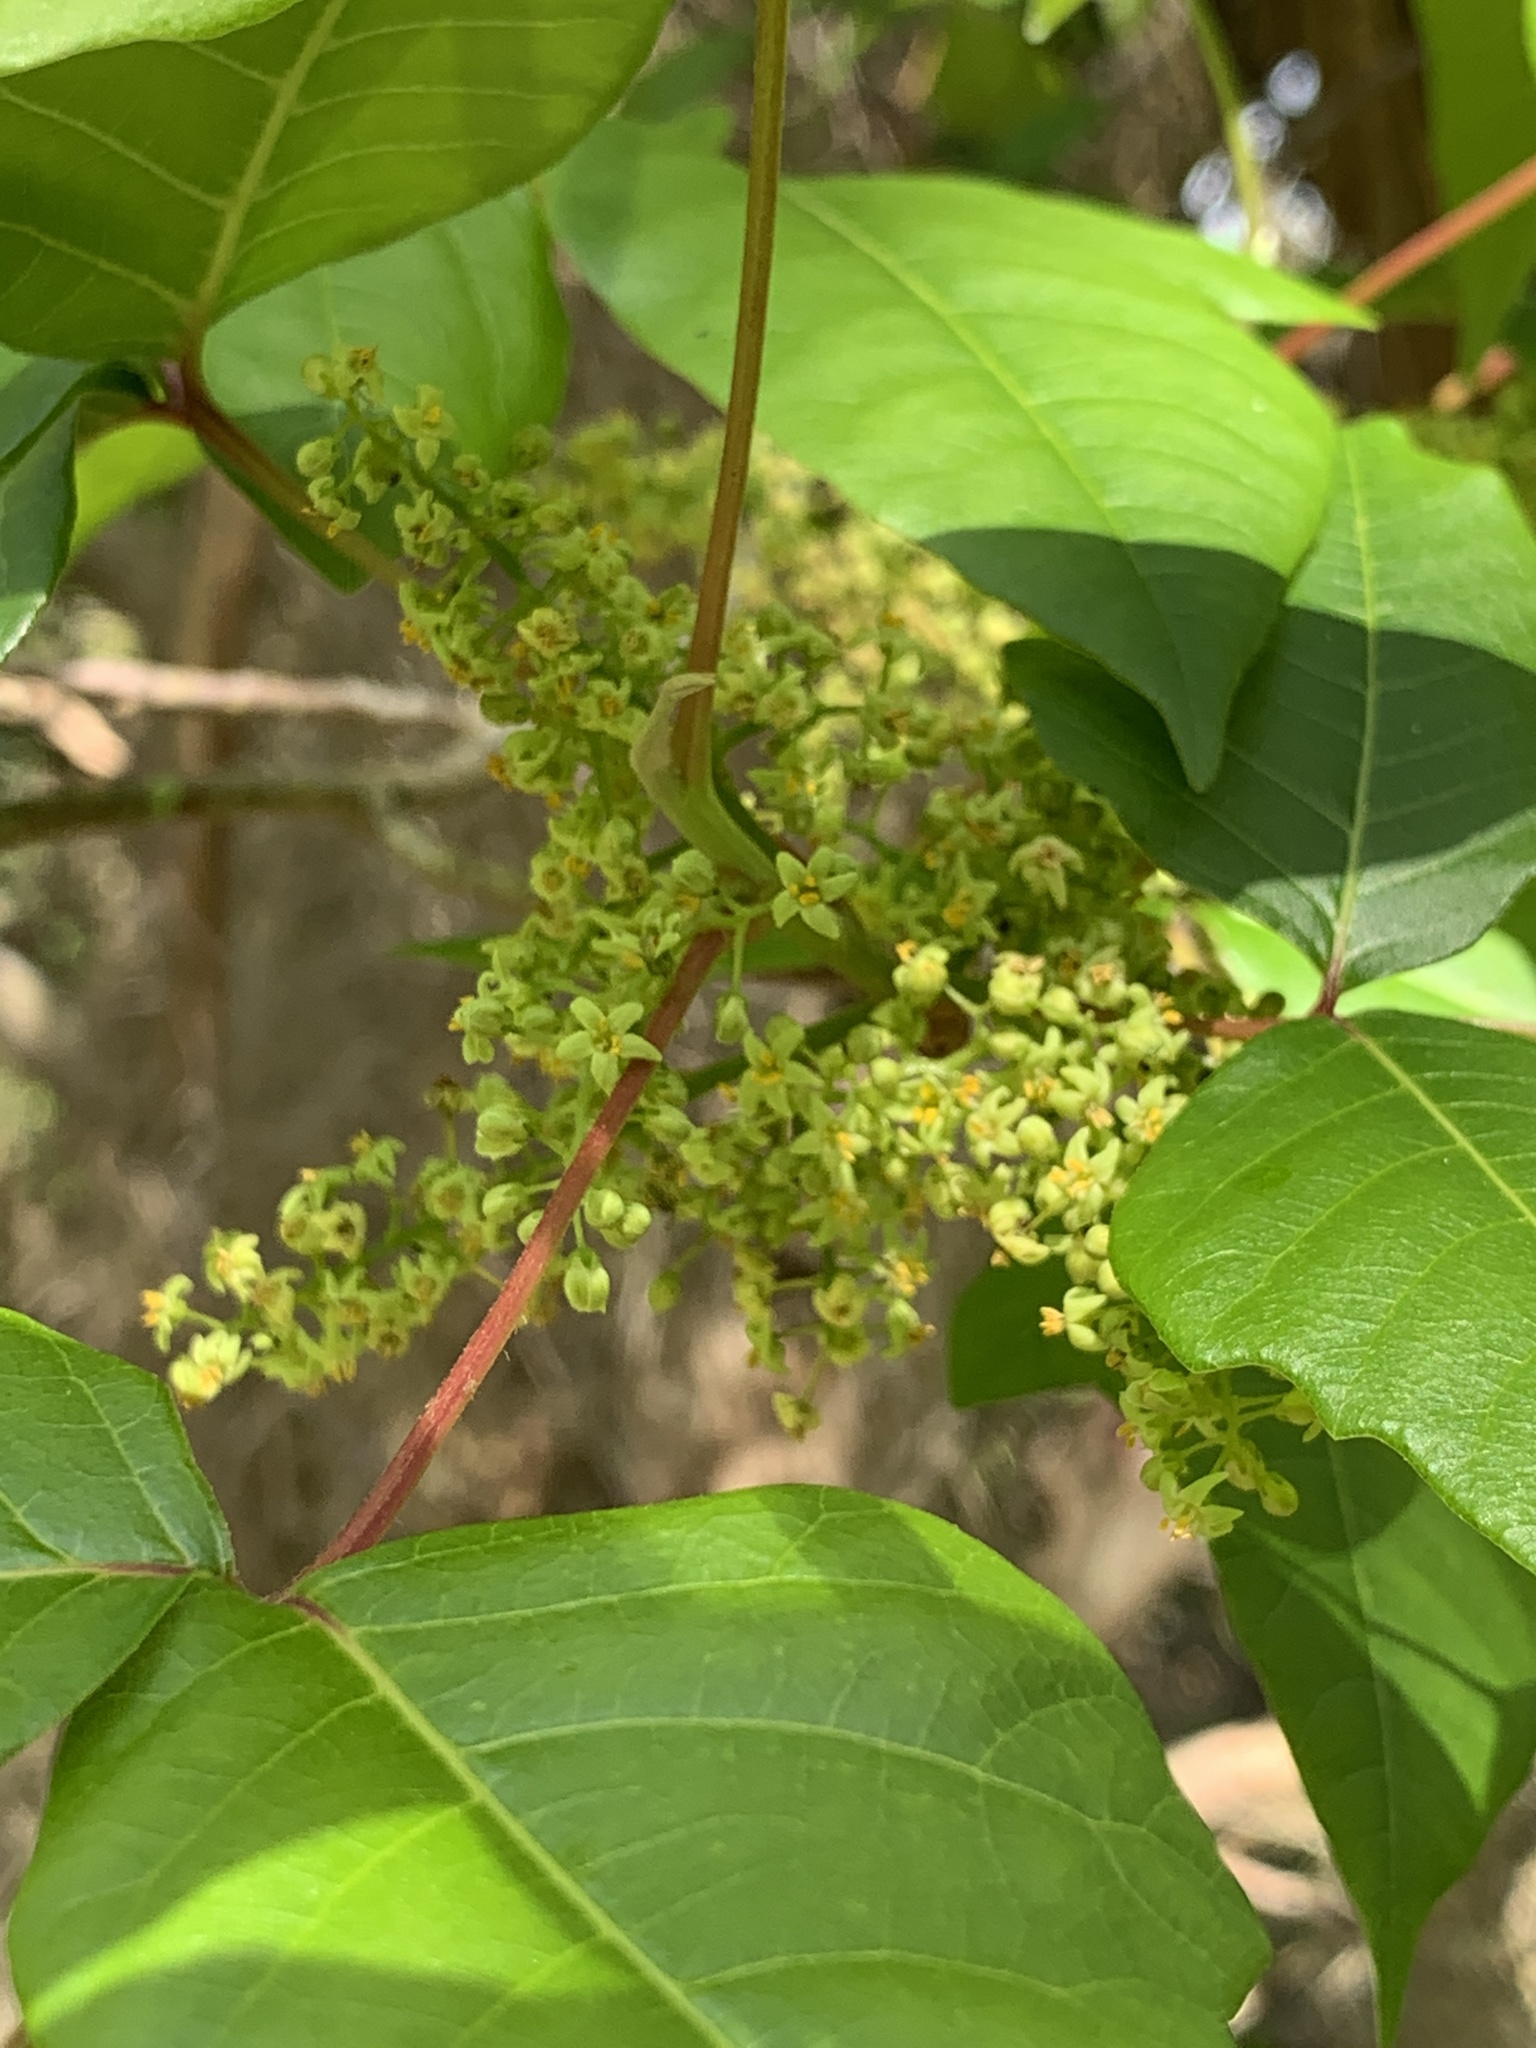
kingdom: Plantae
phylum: Tracheophyta
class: Magnoliopsida
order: Sapindales
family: Anacardiaceae
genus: Toxicodendron
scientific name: Toxicodendron radicans
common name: Poison ivy
